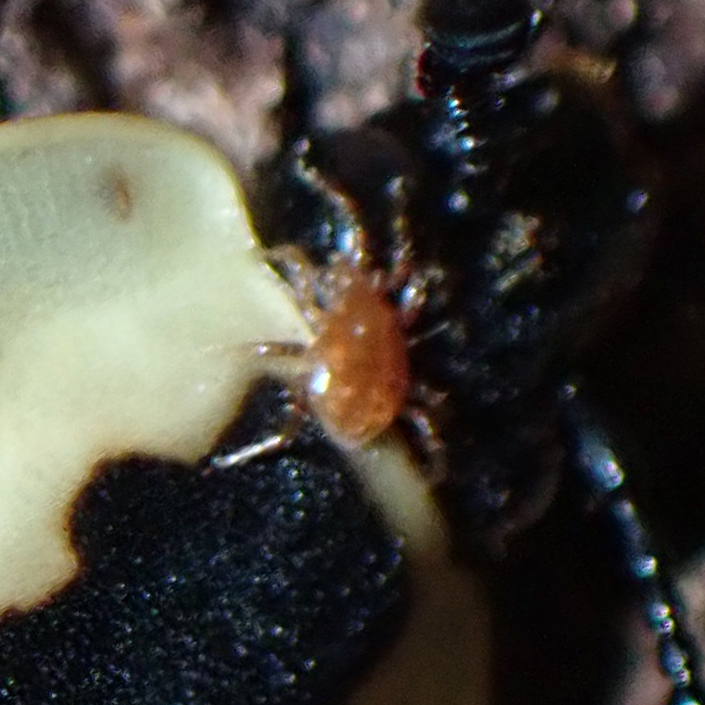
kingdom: Animalia
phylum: Arthropoda
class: Arachnida
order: Mesostigmata
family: Parasitidae
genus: Poecilochirus
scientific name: Poecilochirus
